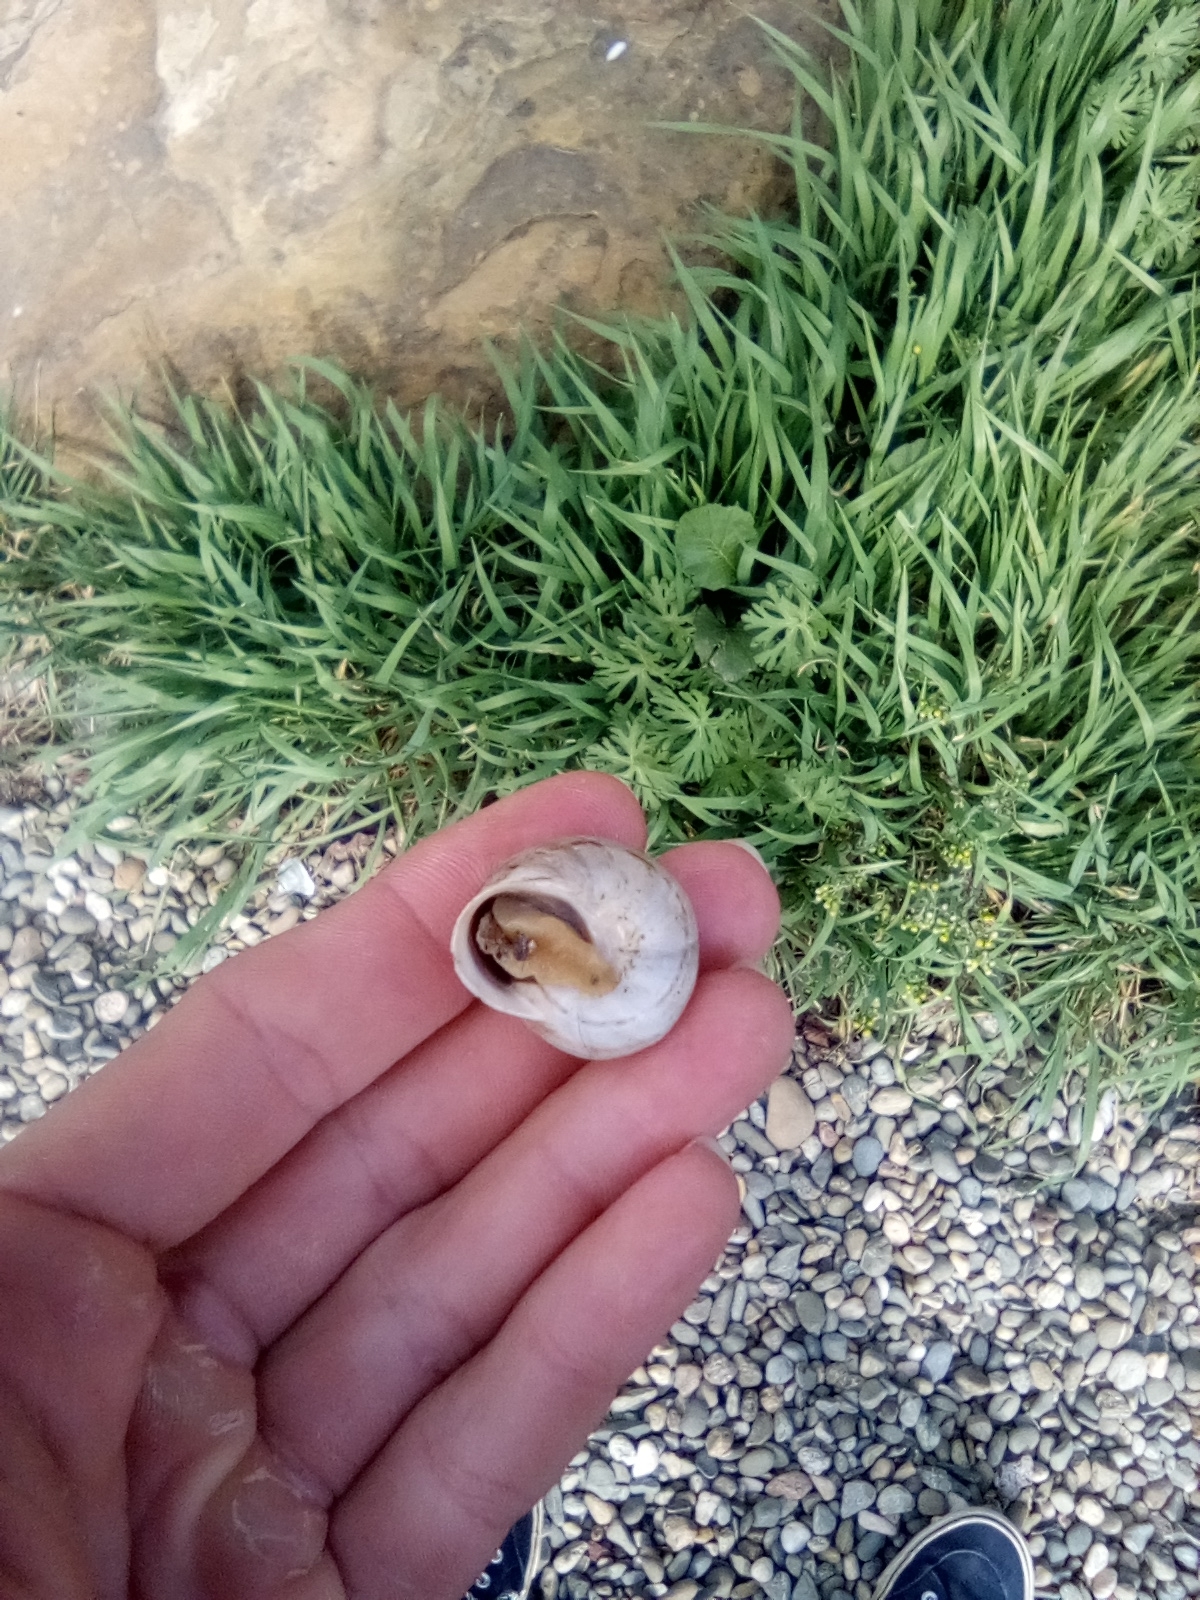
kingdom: Animalia
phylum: Mollusca
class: Gastropoda
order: Stylommatophora
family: Helicidae
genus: Eobania
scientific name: Eobania vermiculata
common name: Chocolateband snail
